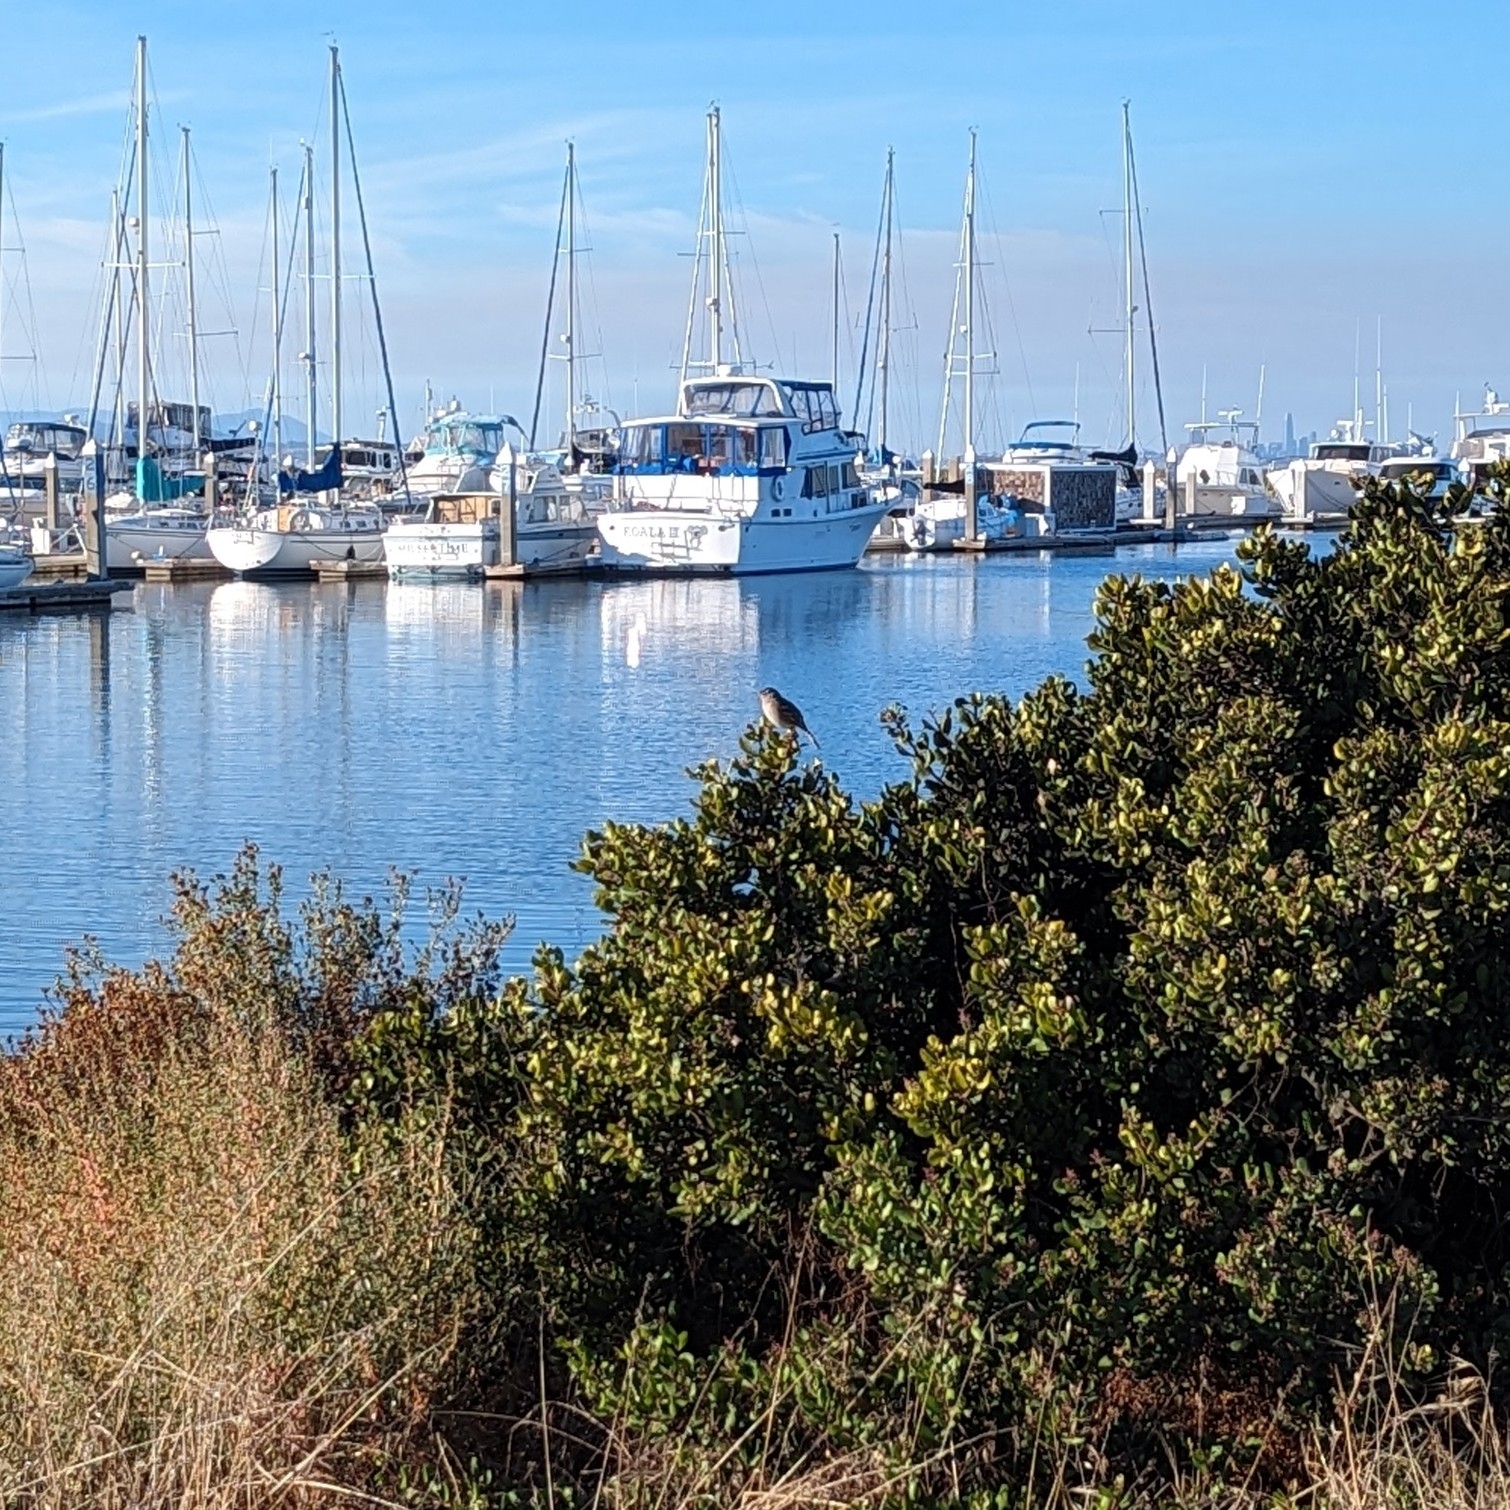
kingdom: Animalia
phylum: Chordata
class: Aves
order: Passeriformes
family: Passerellidae
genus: Zonotrichia
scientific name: Zonotrichia leucophrys
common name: White-crowned sparrow
